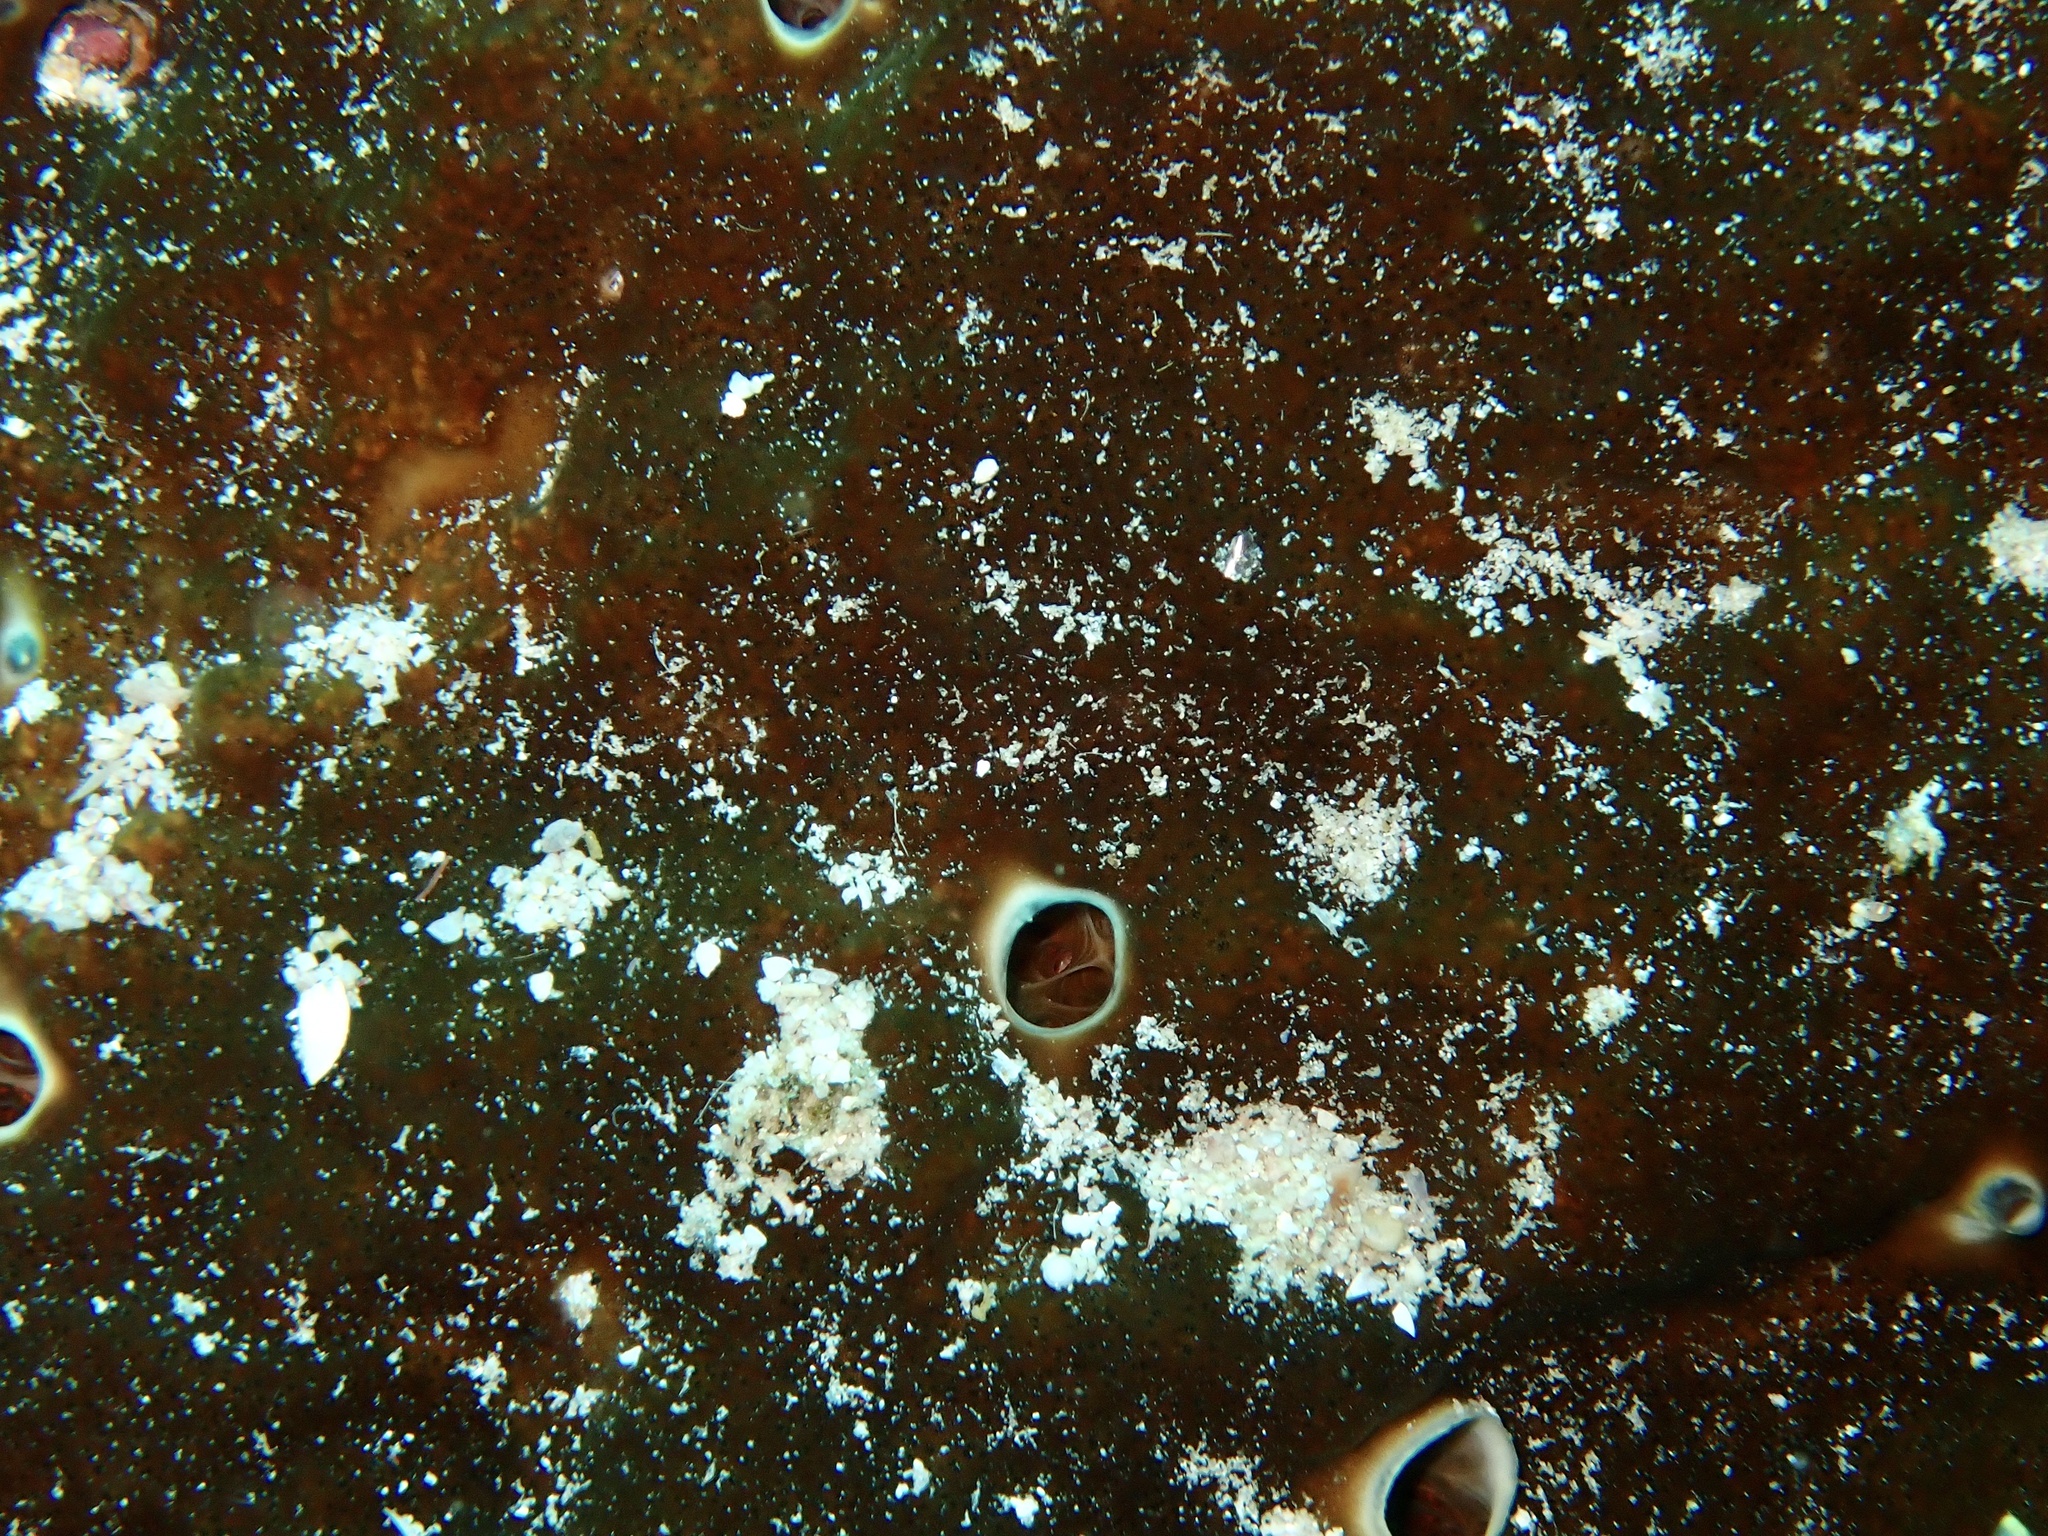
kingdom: Animalia
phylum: Porifera
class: Demospongiae
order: Clionaida
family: Clionaidae
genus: Cliona
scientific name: Cliona orientalis
